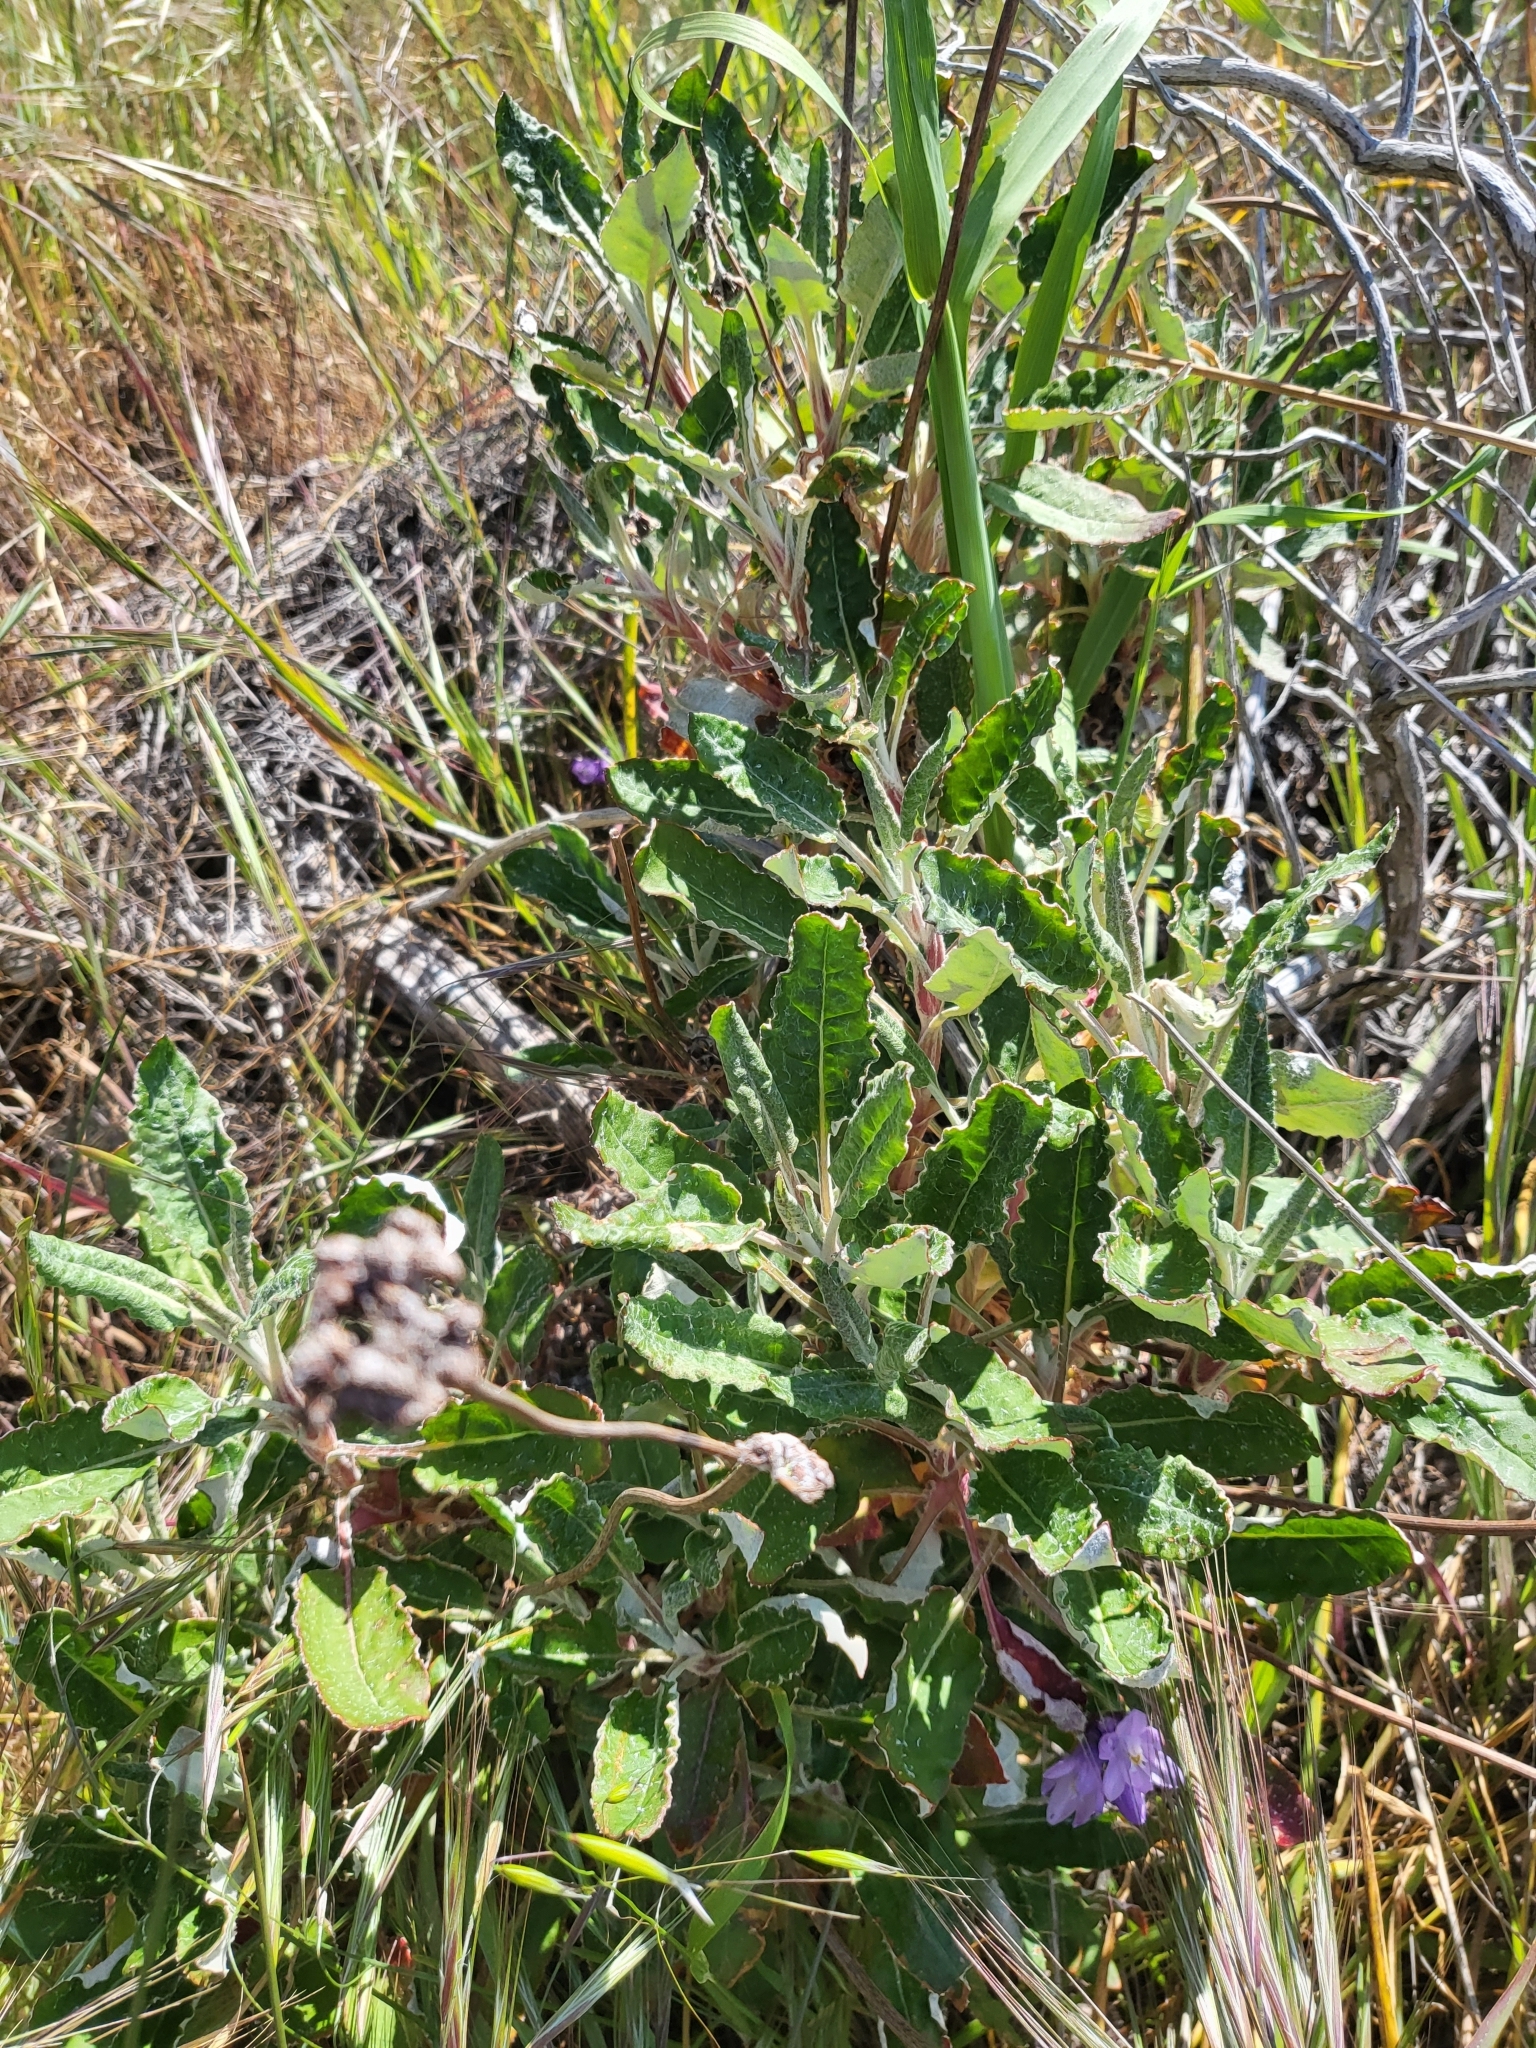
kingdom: Plantae
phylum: Tracheophyta
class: Magnoliopsida
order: Caryophyllales
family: Polygonaceae
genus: Eriogonum
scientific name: Eriogonum latifolium
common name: Seaside wild buckwheat
